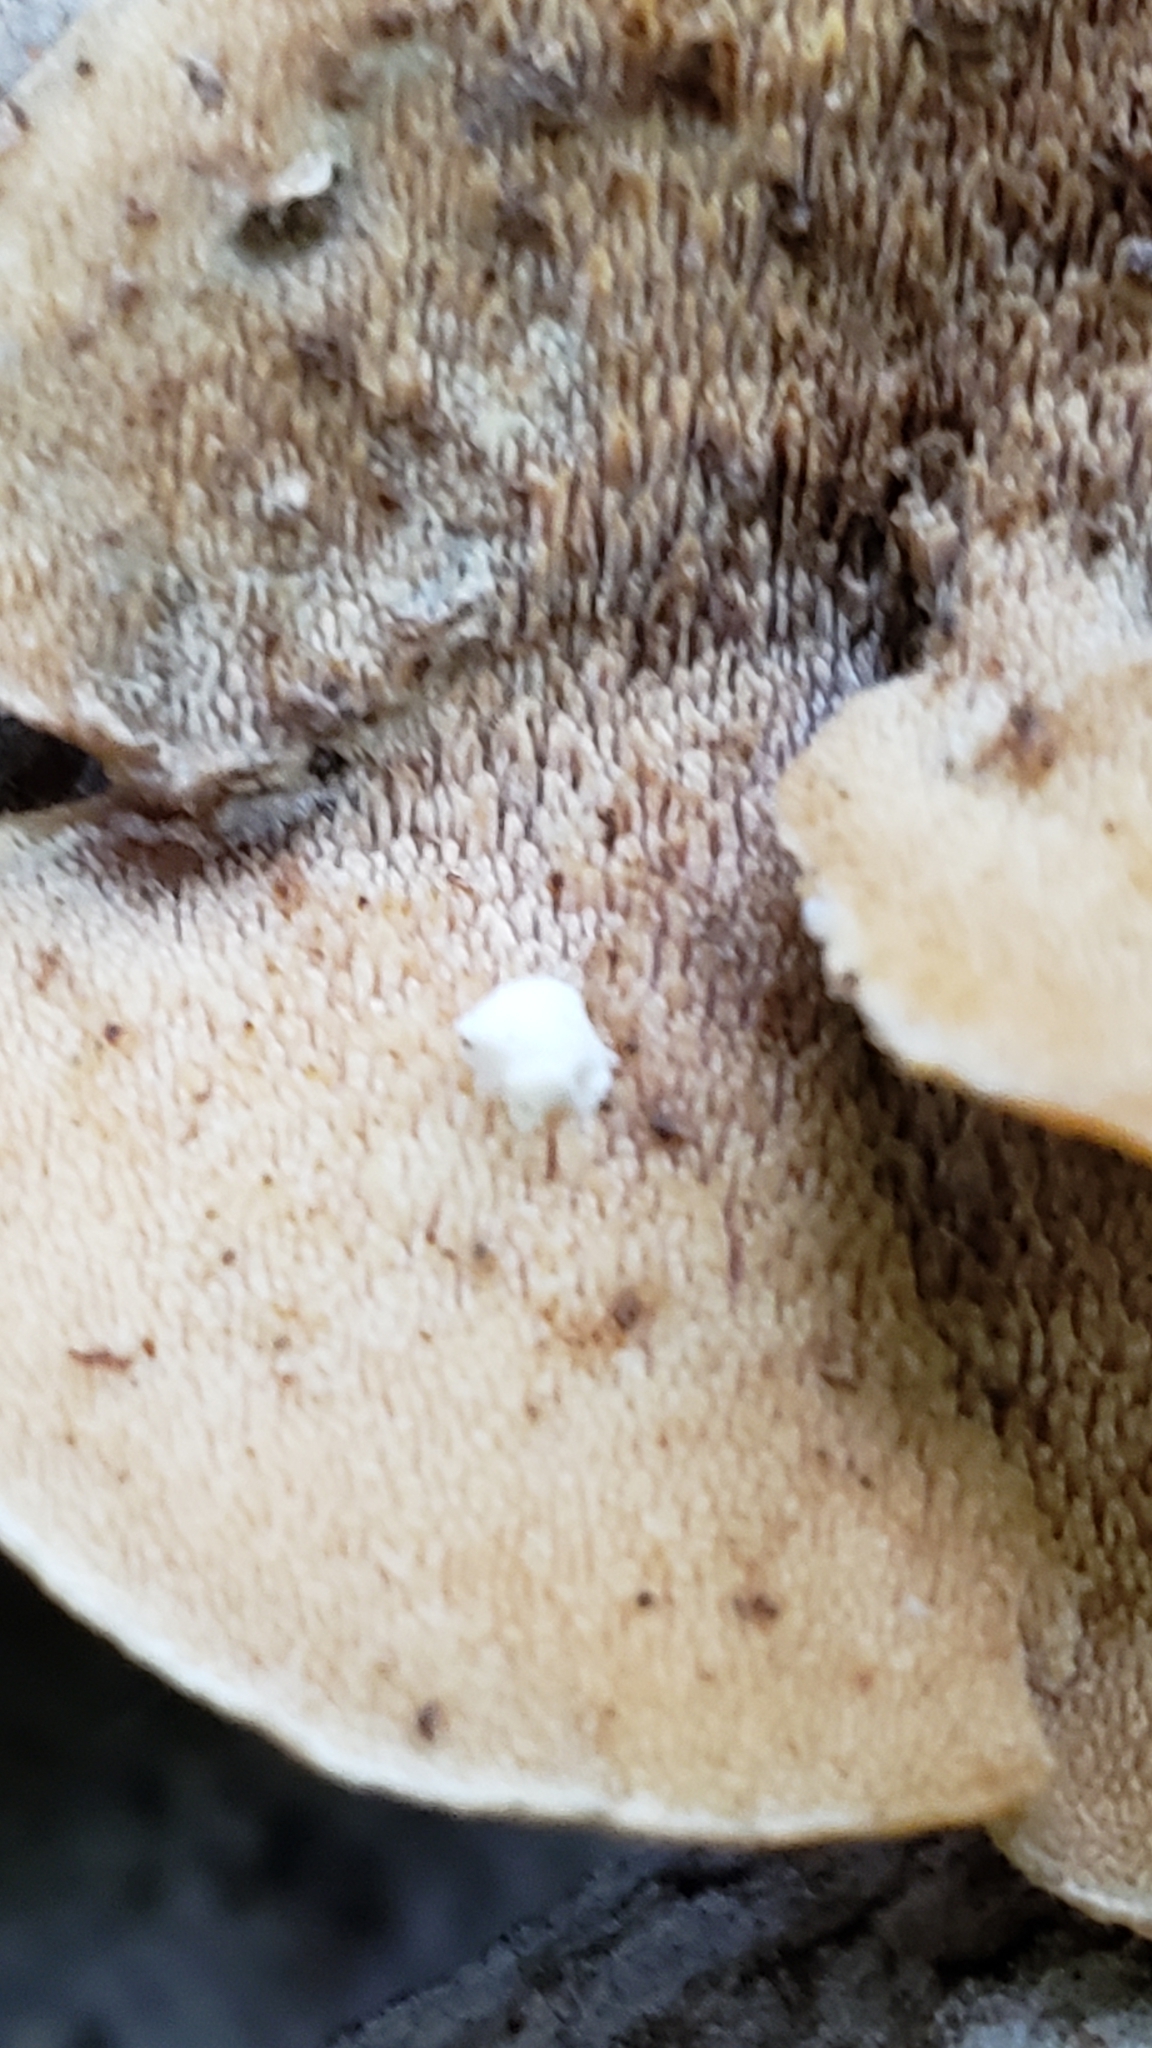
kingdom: Fungi
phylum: Basidiomycota
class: Agaricomycetes
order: Polyporales
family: Steccherinaceae
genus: Steccherinum
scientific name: Steccherinum rawakense
